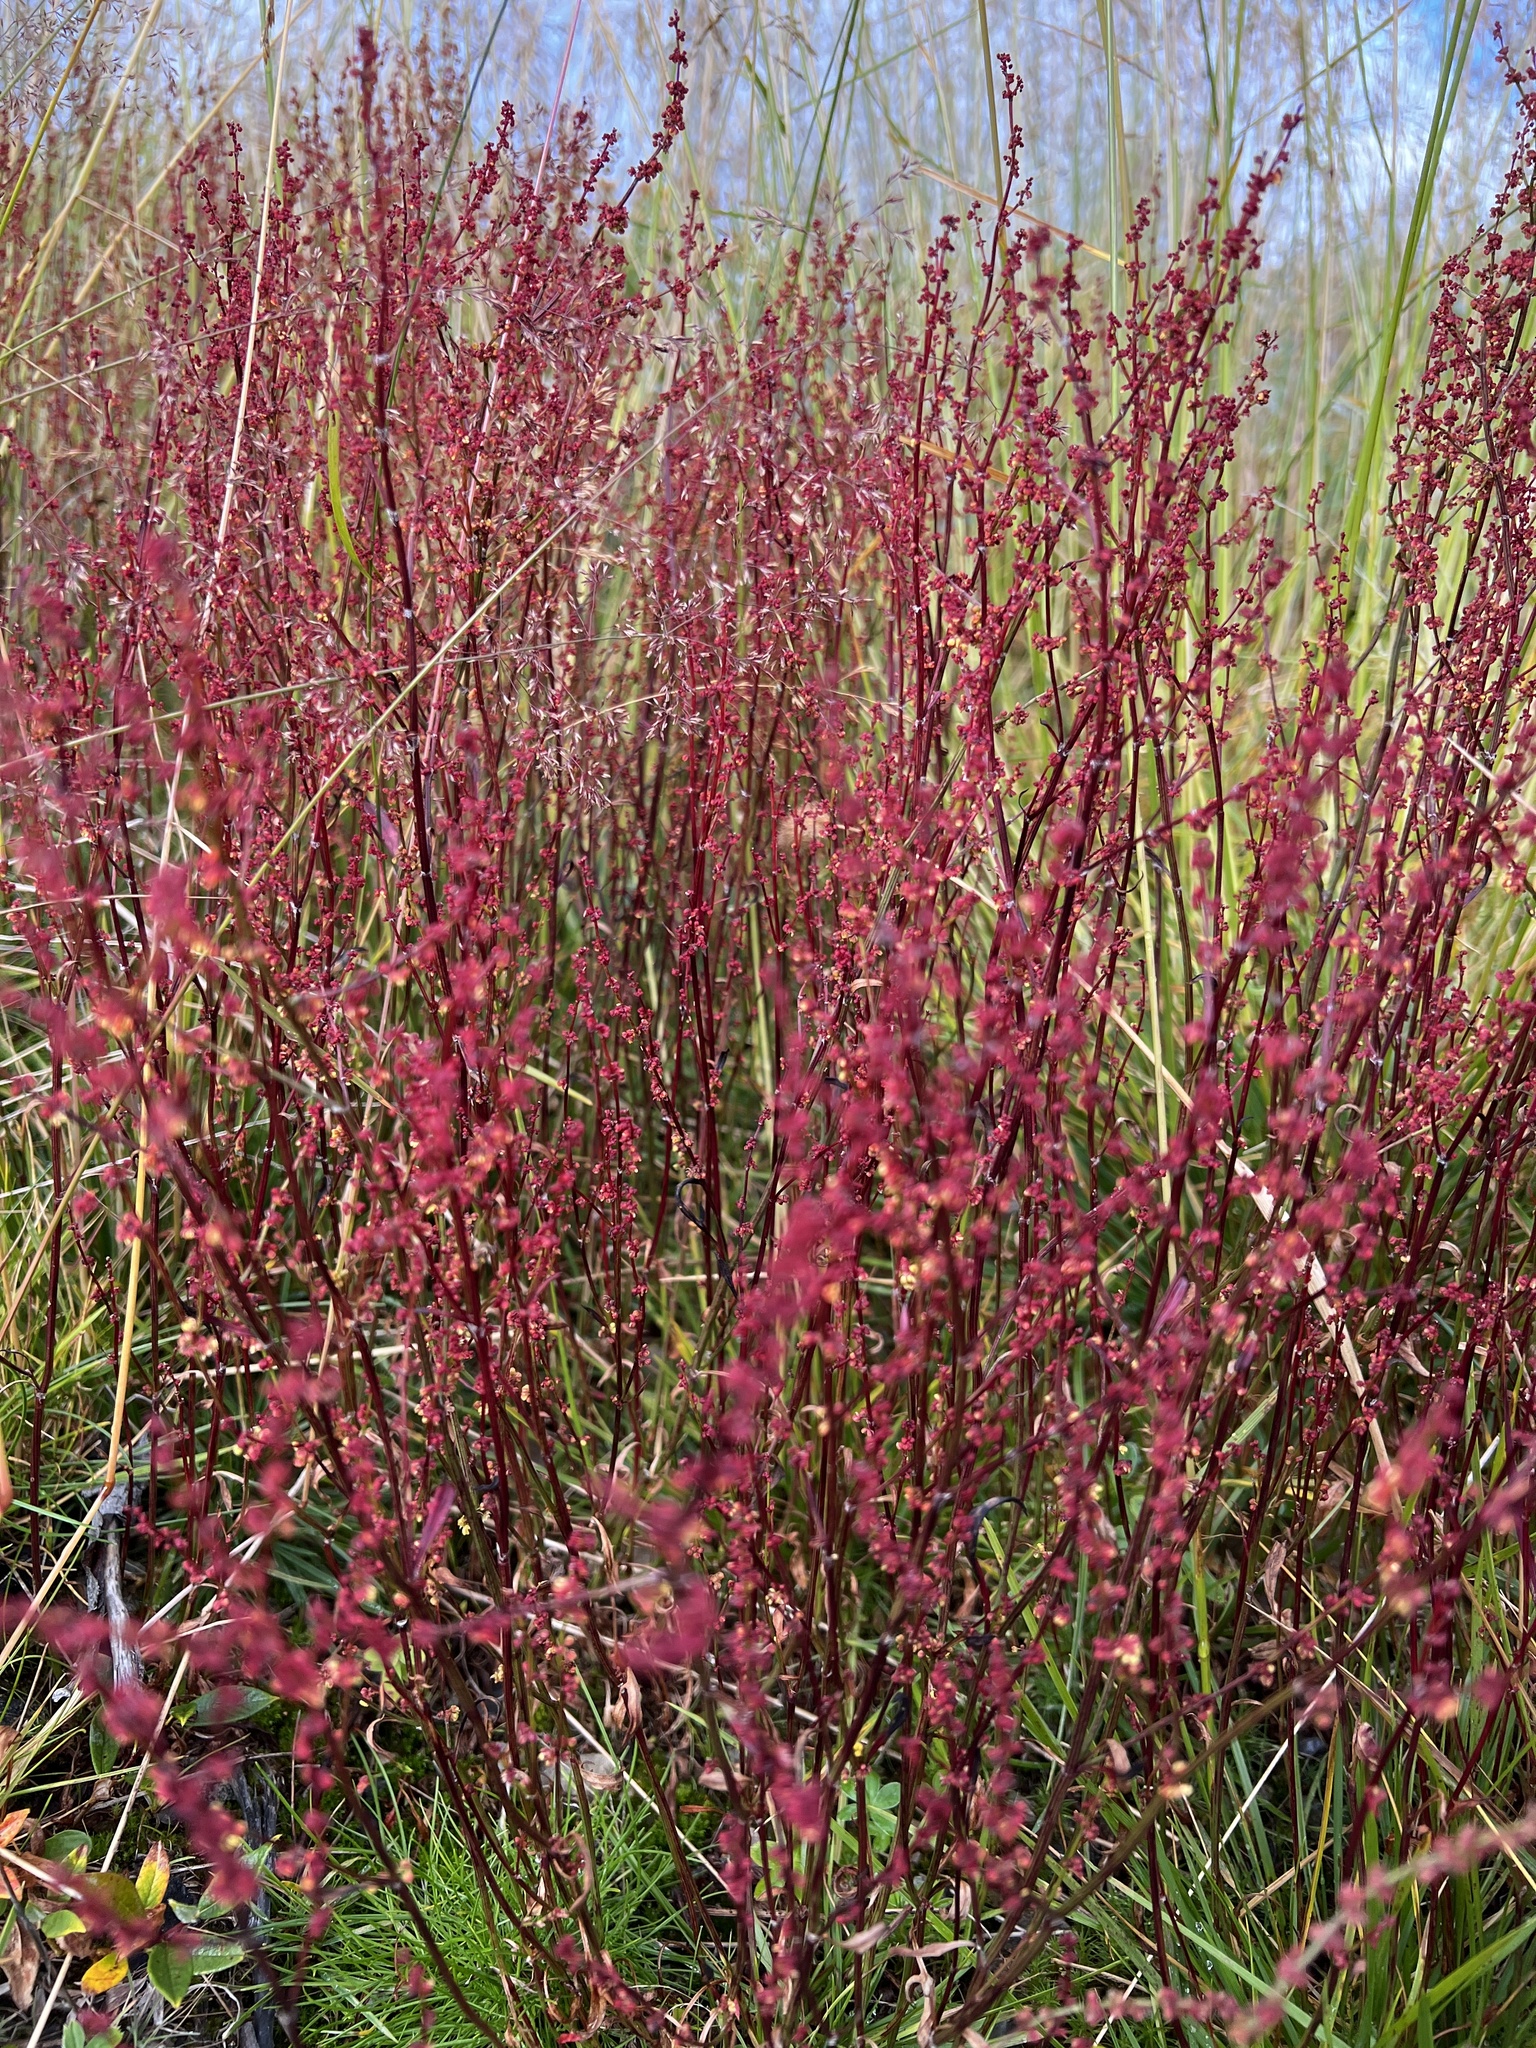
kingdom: Plantae
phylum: Tracheophyta
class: Magnoliopsida
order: Caryophyllales
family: Polygonaceae
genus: Rumex
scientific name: Rumex acetosella
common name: Common sheep sorrel
